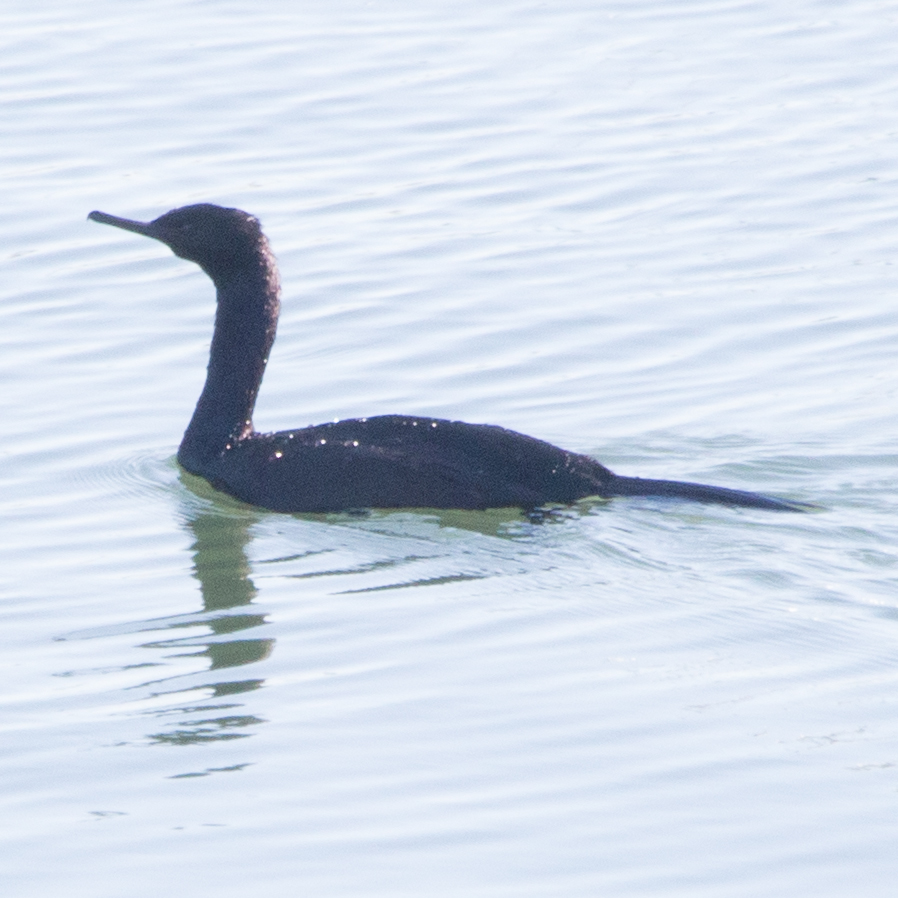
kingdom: Animalia
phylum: Chordata
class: Aves
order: Suliformes
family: Phalacrocoracidae
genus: Phalacrocorax
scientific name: Phalacrocorax pelagicus
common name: Pelagic cormorant
